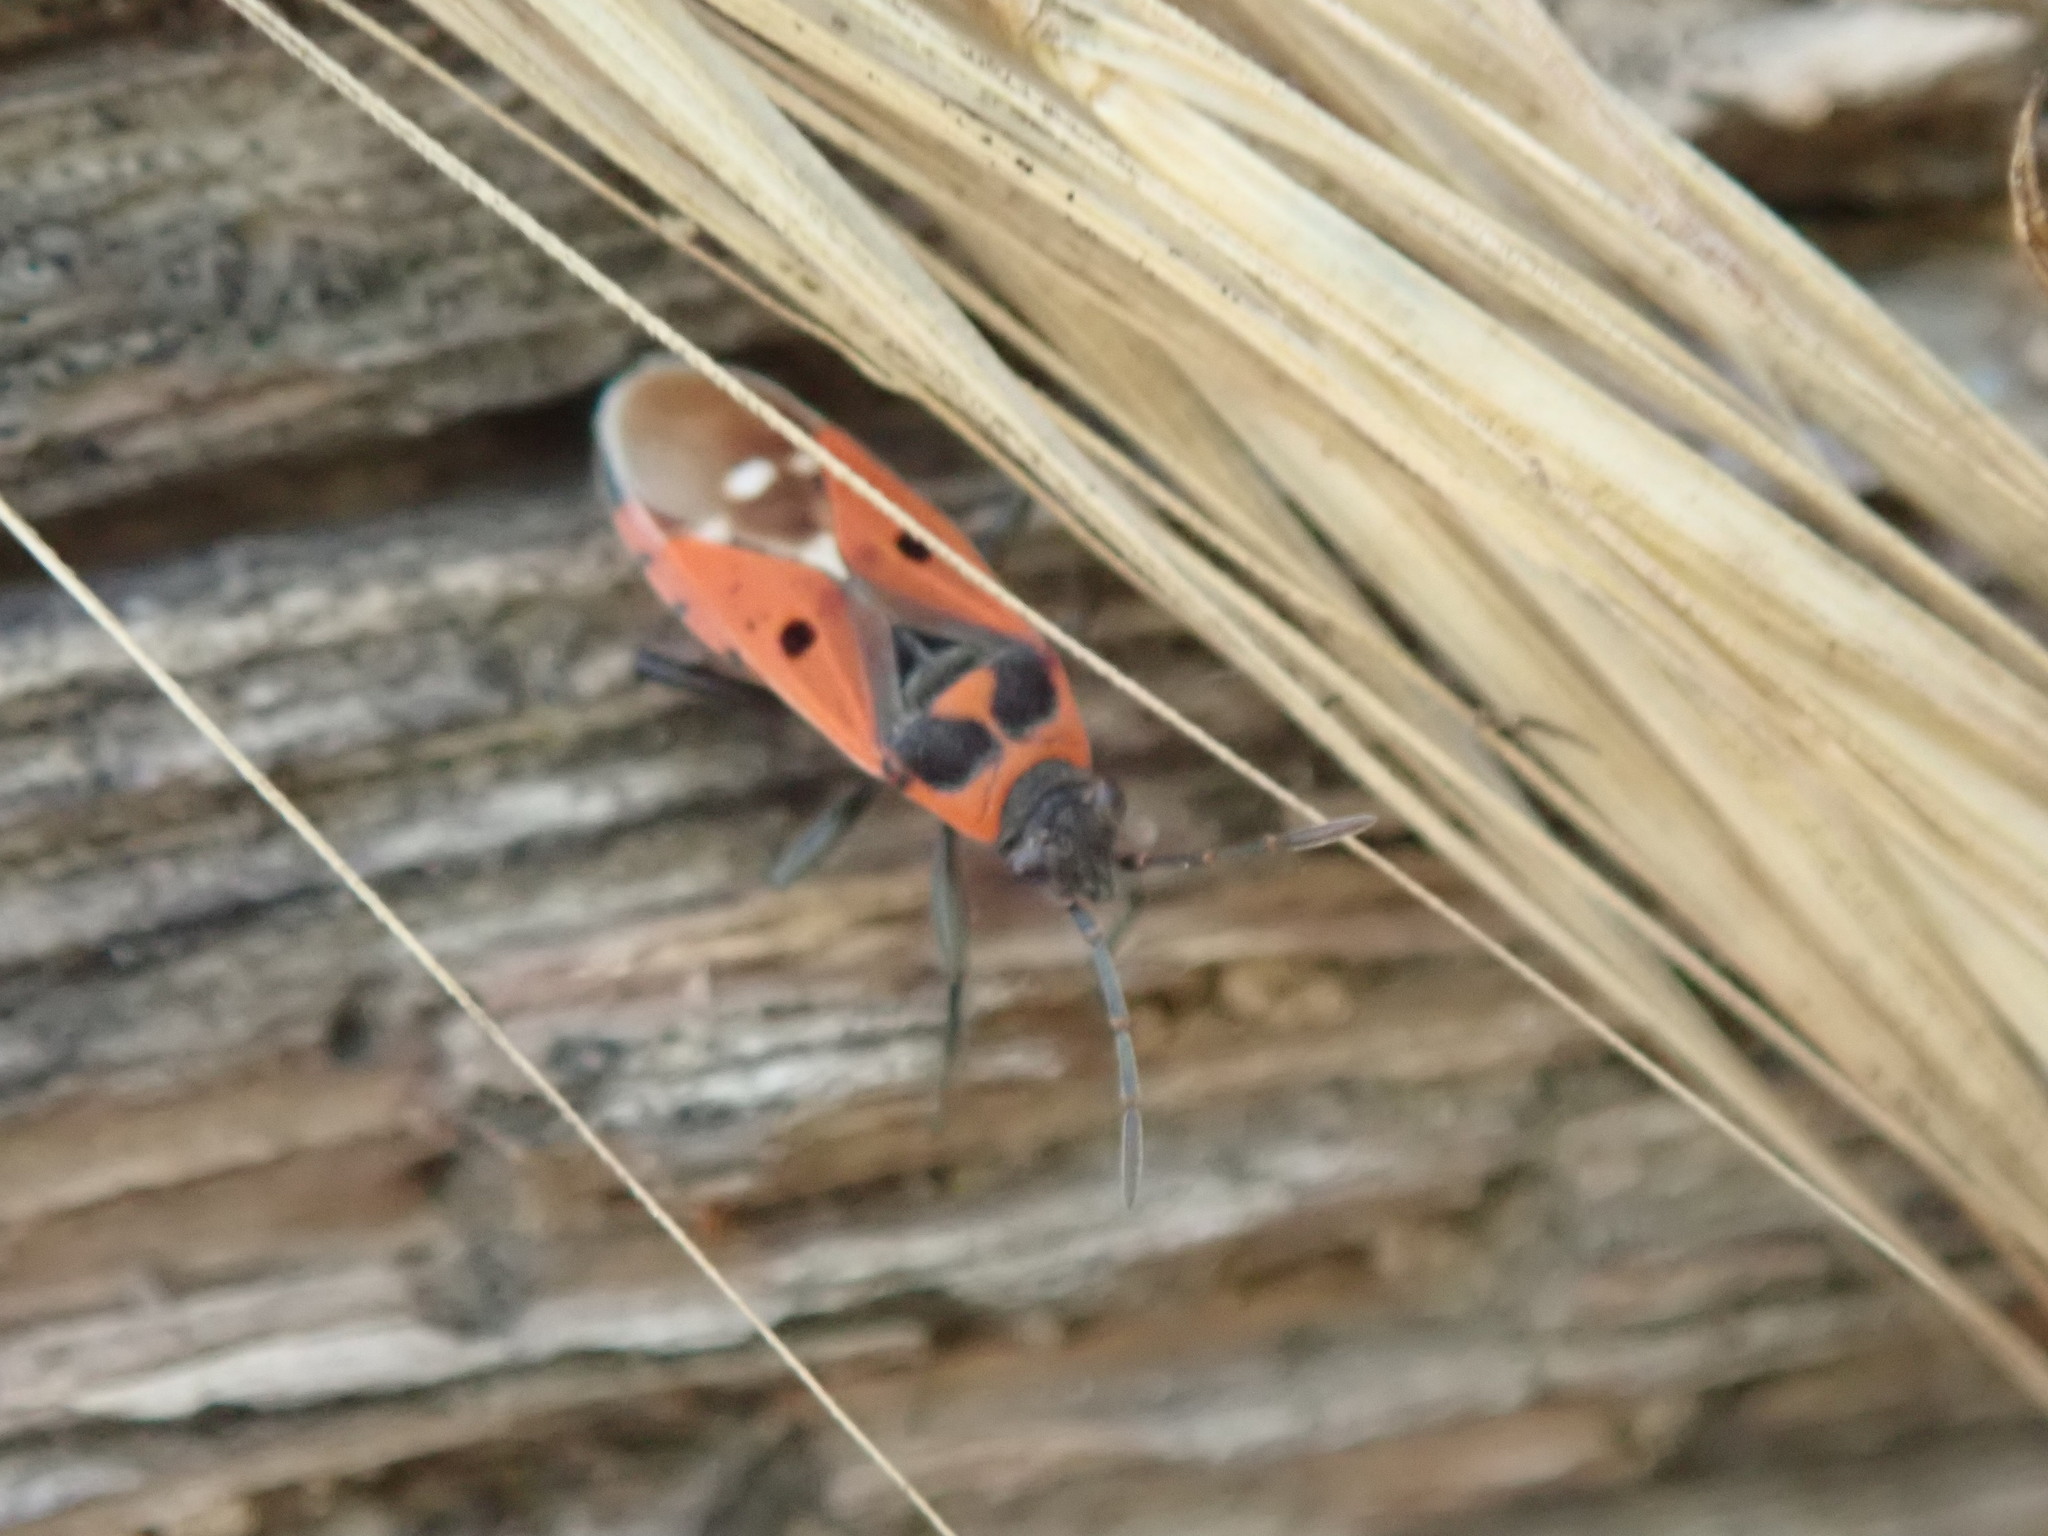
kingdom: Animalia
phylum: Arthropoda
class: Insecta
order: Hemiptera
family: Lygaeidae
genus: Melanocoryphus
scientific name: Melanocoryphus albomaculatus
